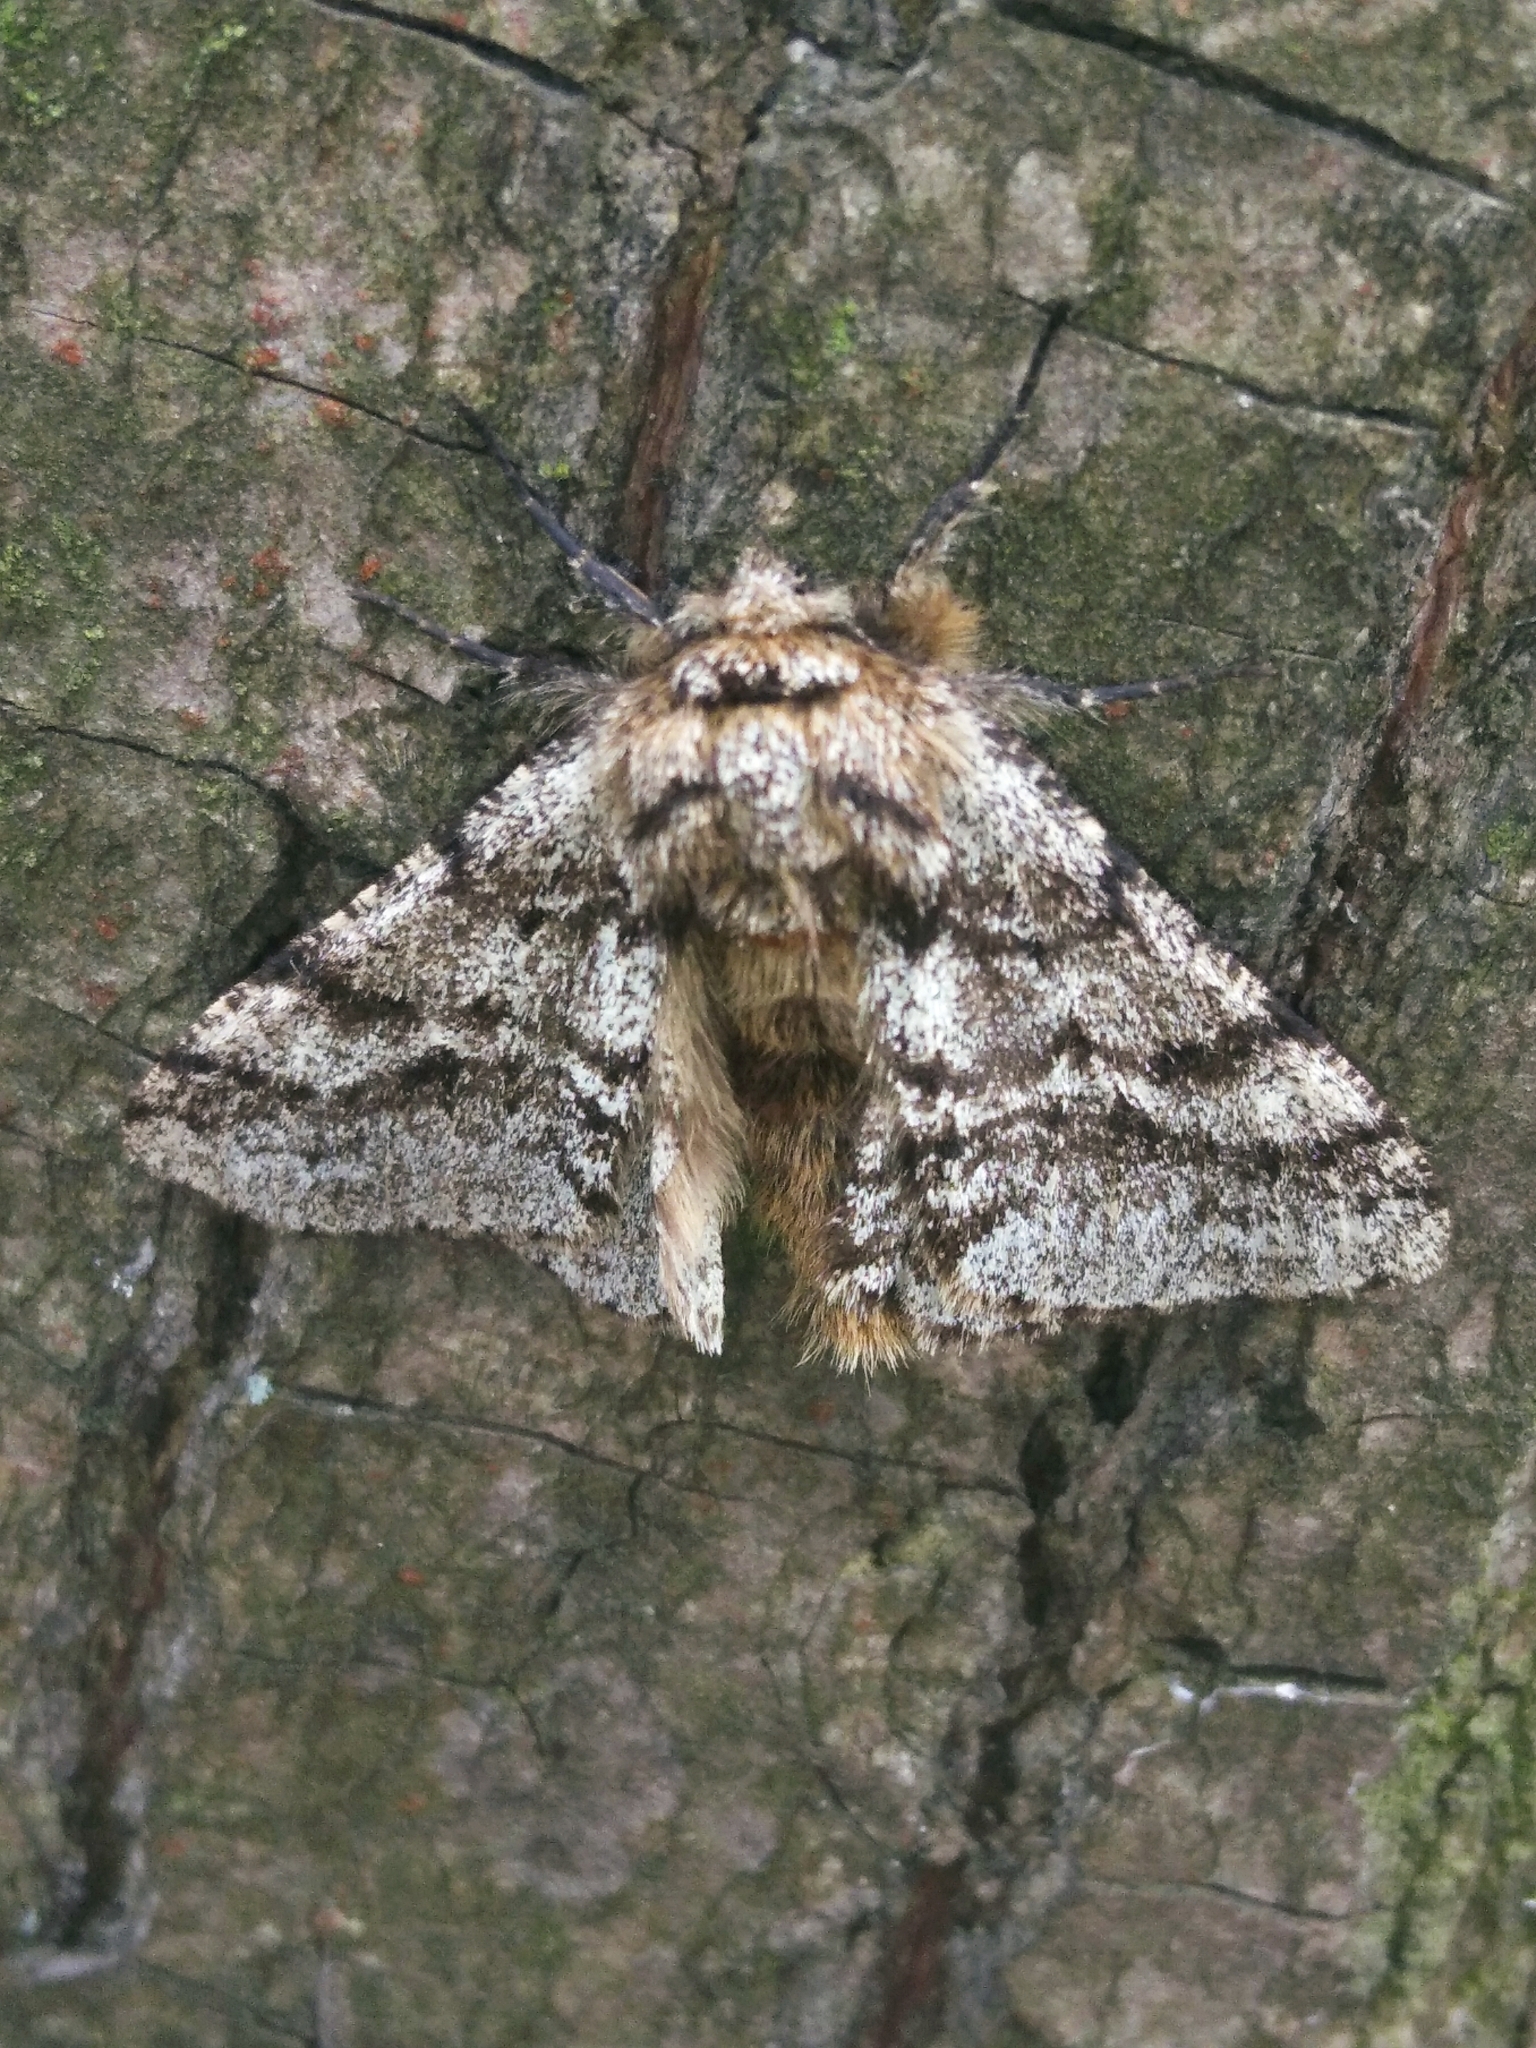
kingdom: Animalia
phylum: Arthropoda
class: Insecta
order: Lepidoptera
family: Geometridae
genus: Lycia
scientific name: Lycia hirtaria
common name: Brindled beauty
